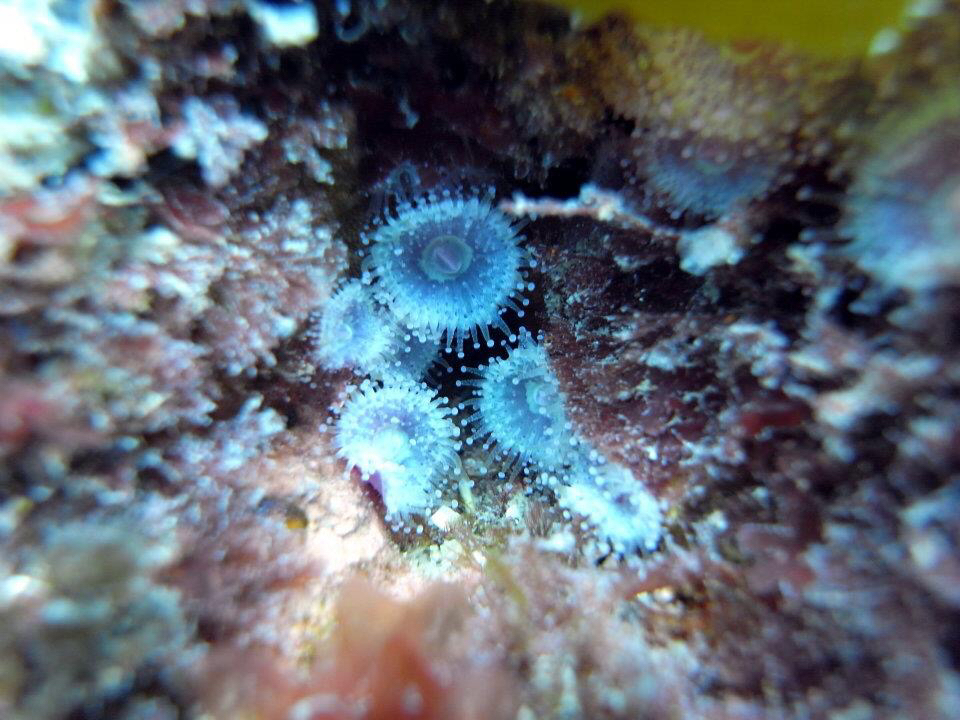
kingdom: Animalia
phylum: Cnidaria
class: Anthozoa
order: Corallimorpharia
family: Corallimorphidae
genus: Corynactis
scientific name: Corynactis australis
